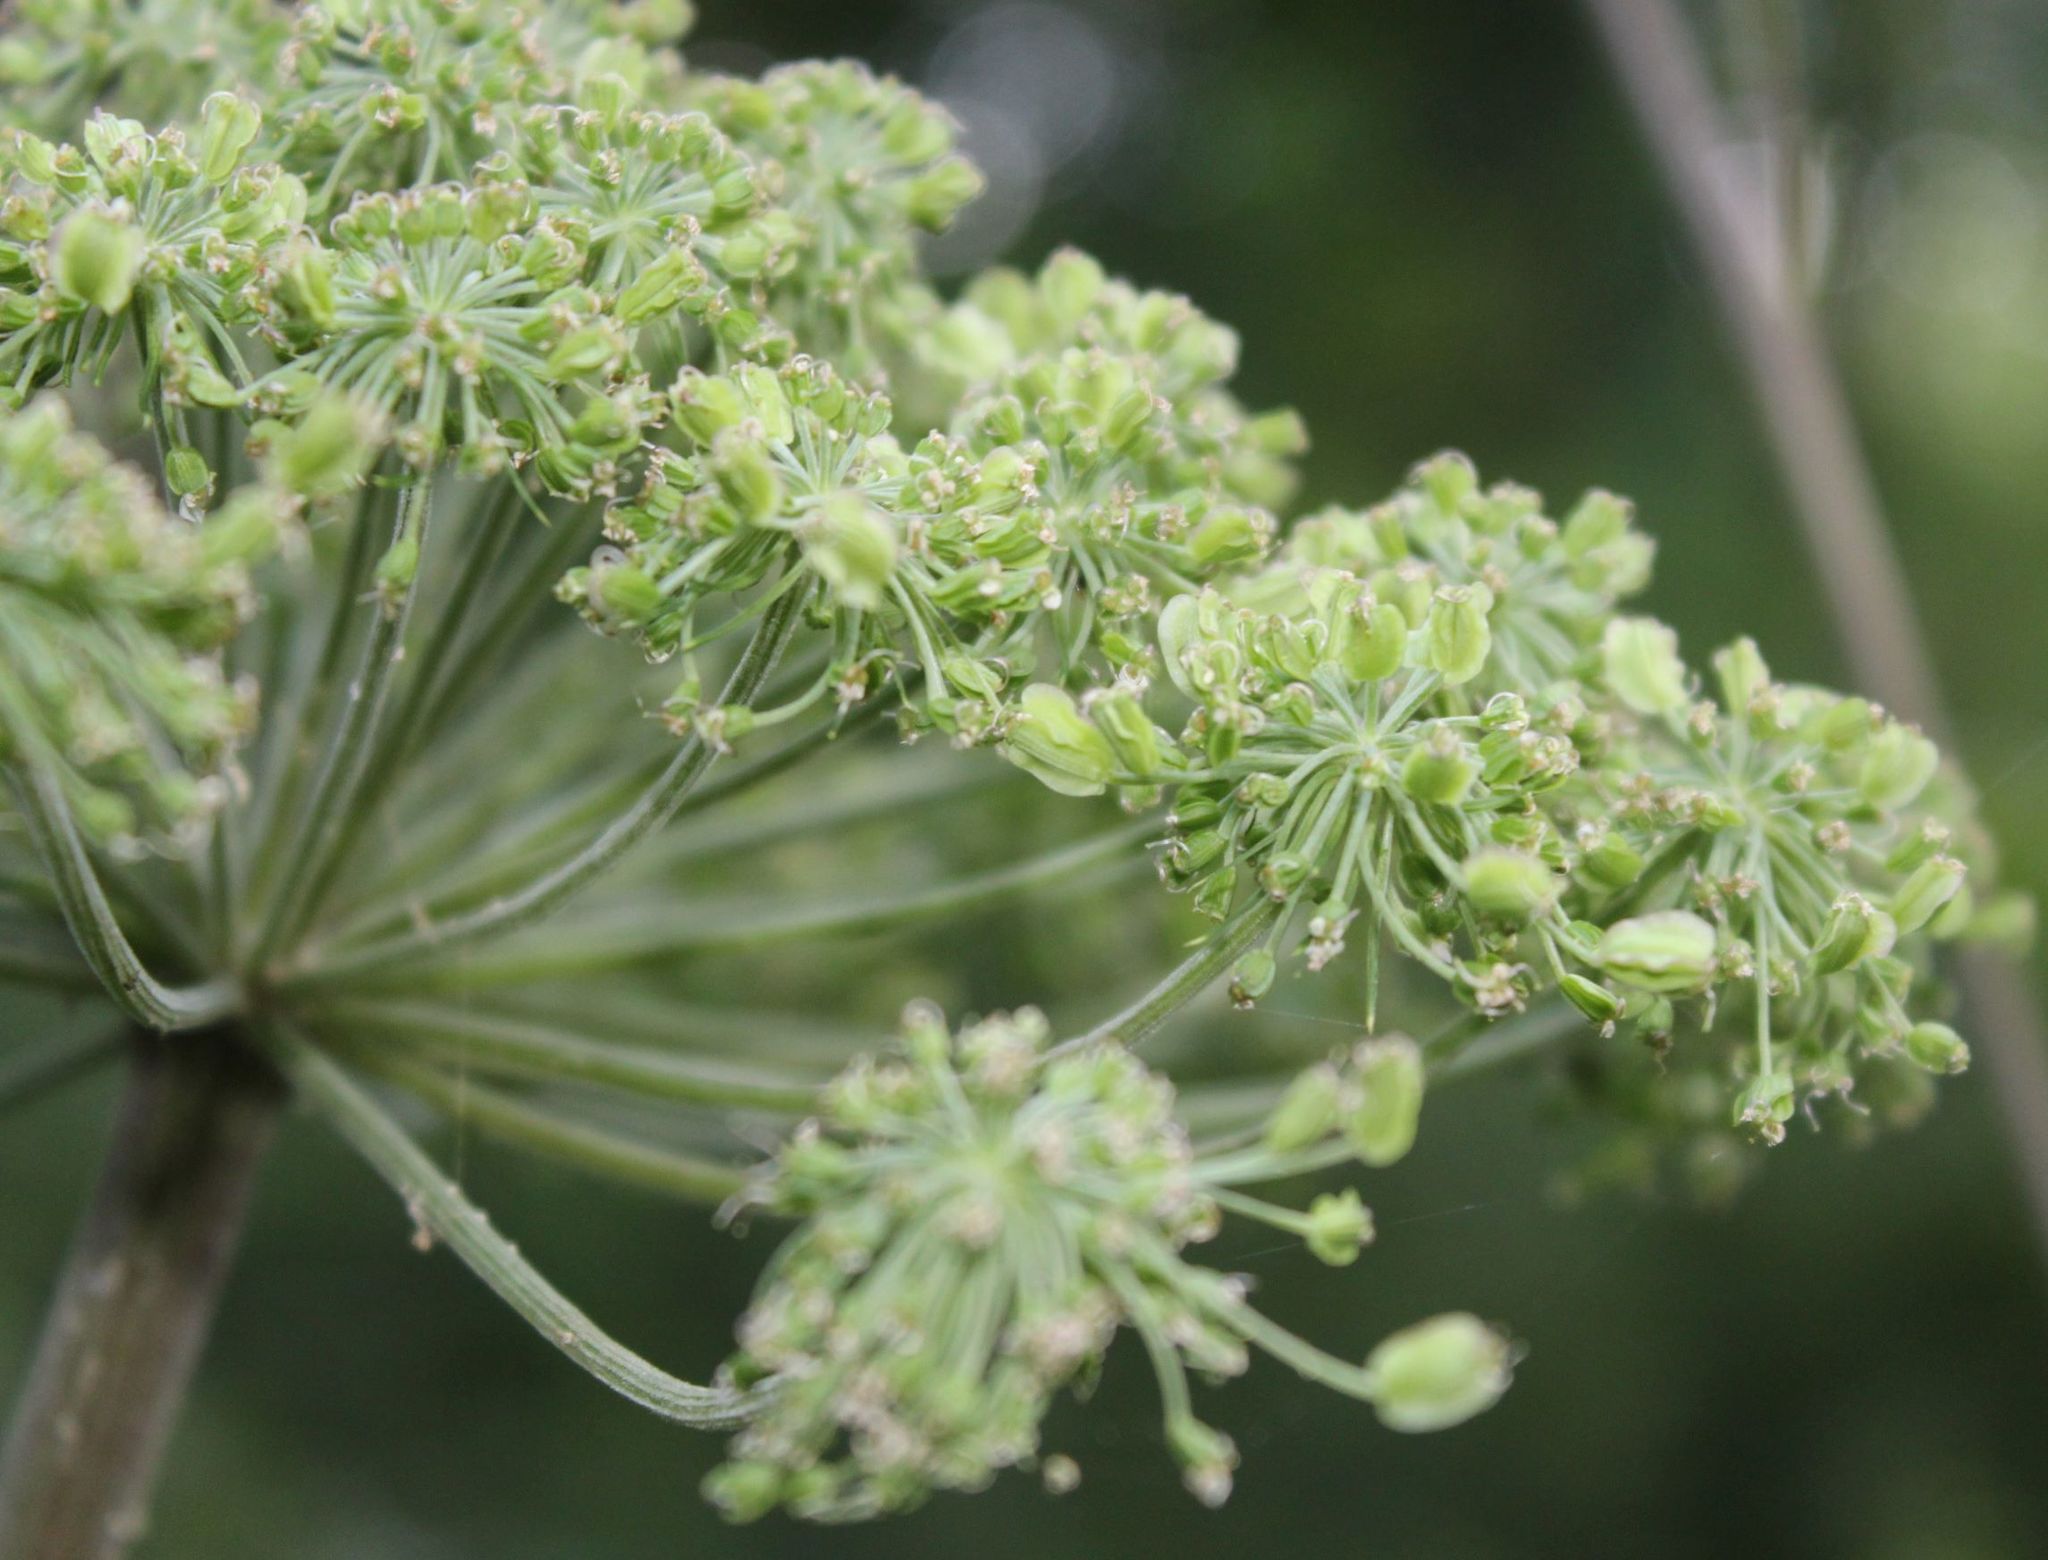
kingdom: Plantae
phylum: Tracheophyta
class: Magnoliopsida
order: Apiales
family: Apiaceae
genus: Angelica
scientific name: Angelica sylvestris
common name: Wild angelica
